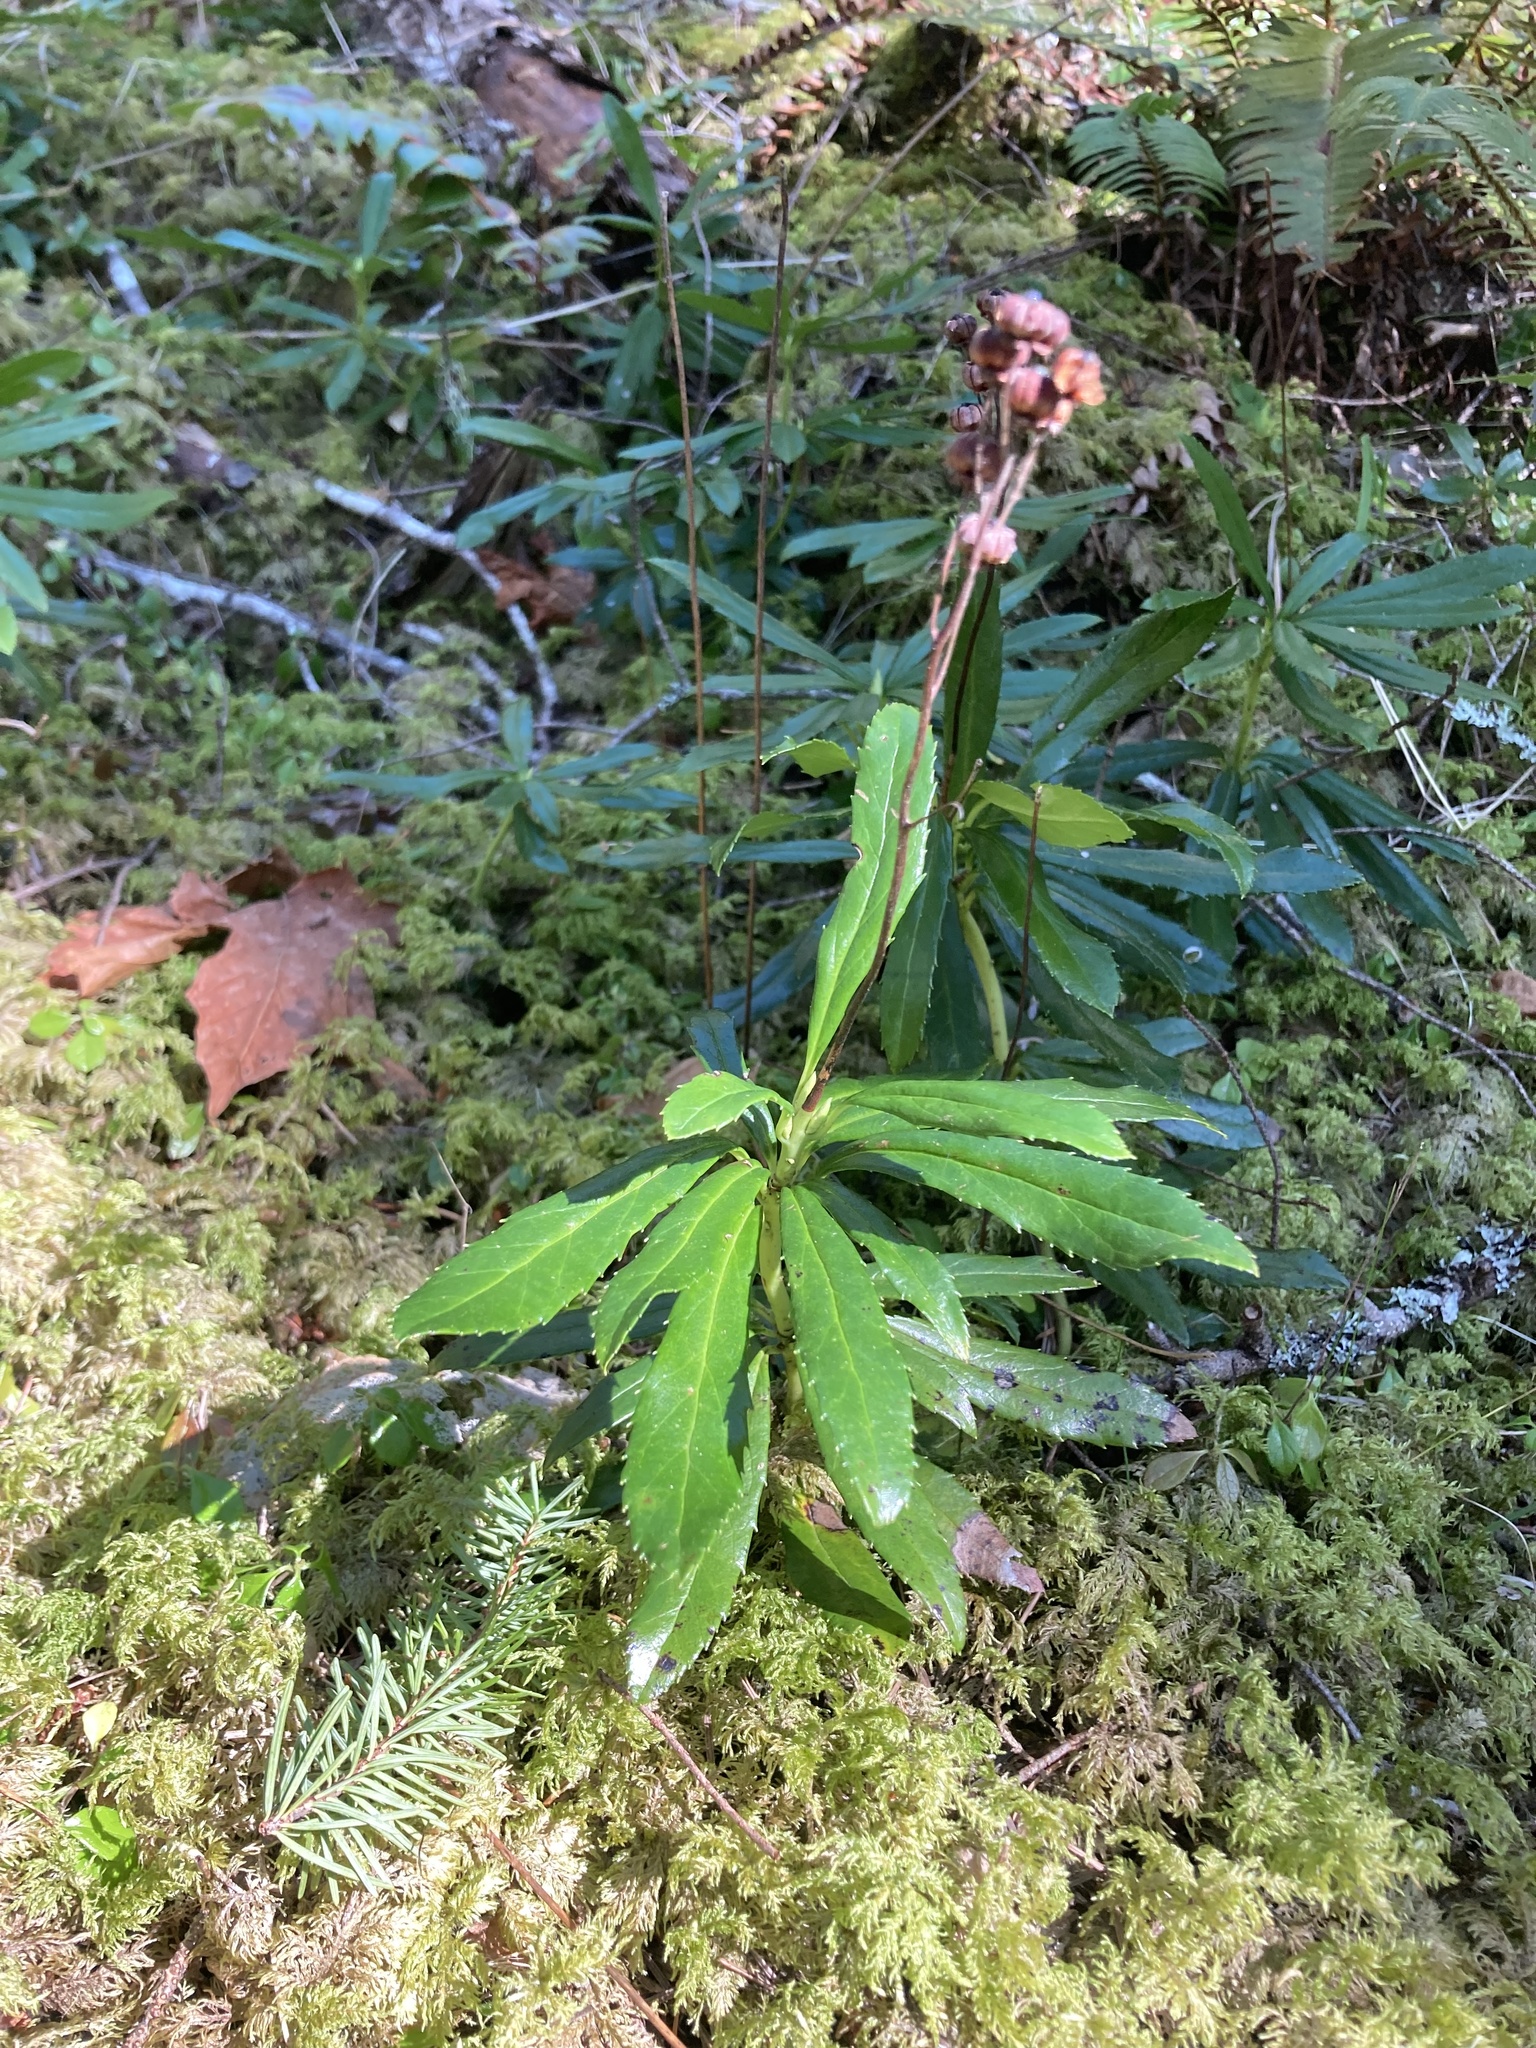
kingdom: Plantae
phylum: Tracheophyta
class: Magnoliopsida
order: Ericales
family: Ericaceae
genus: Chimaphila
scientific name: Chimaphila umbellata
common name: Pipsissewa
